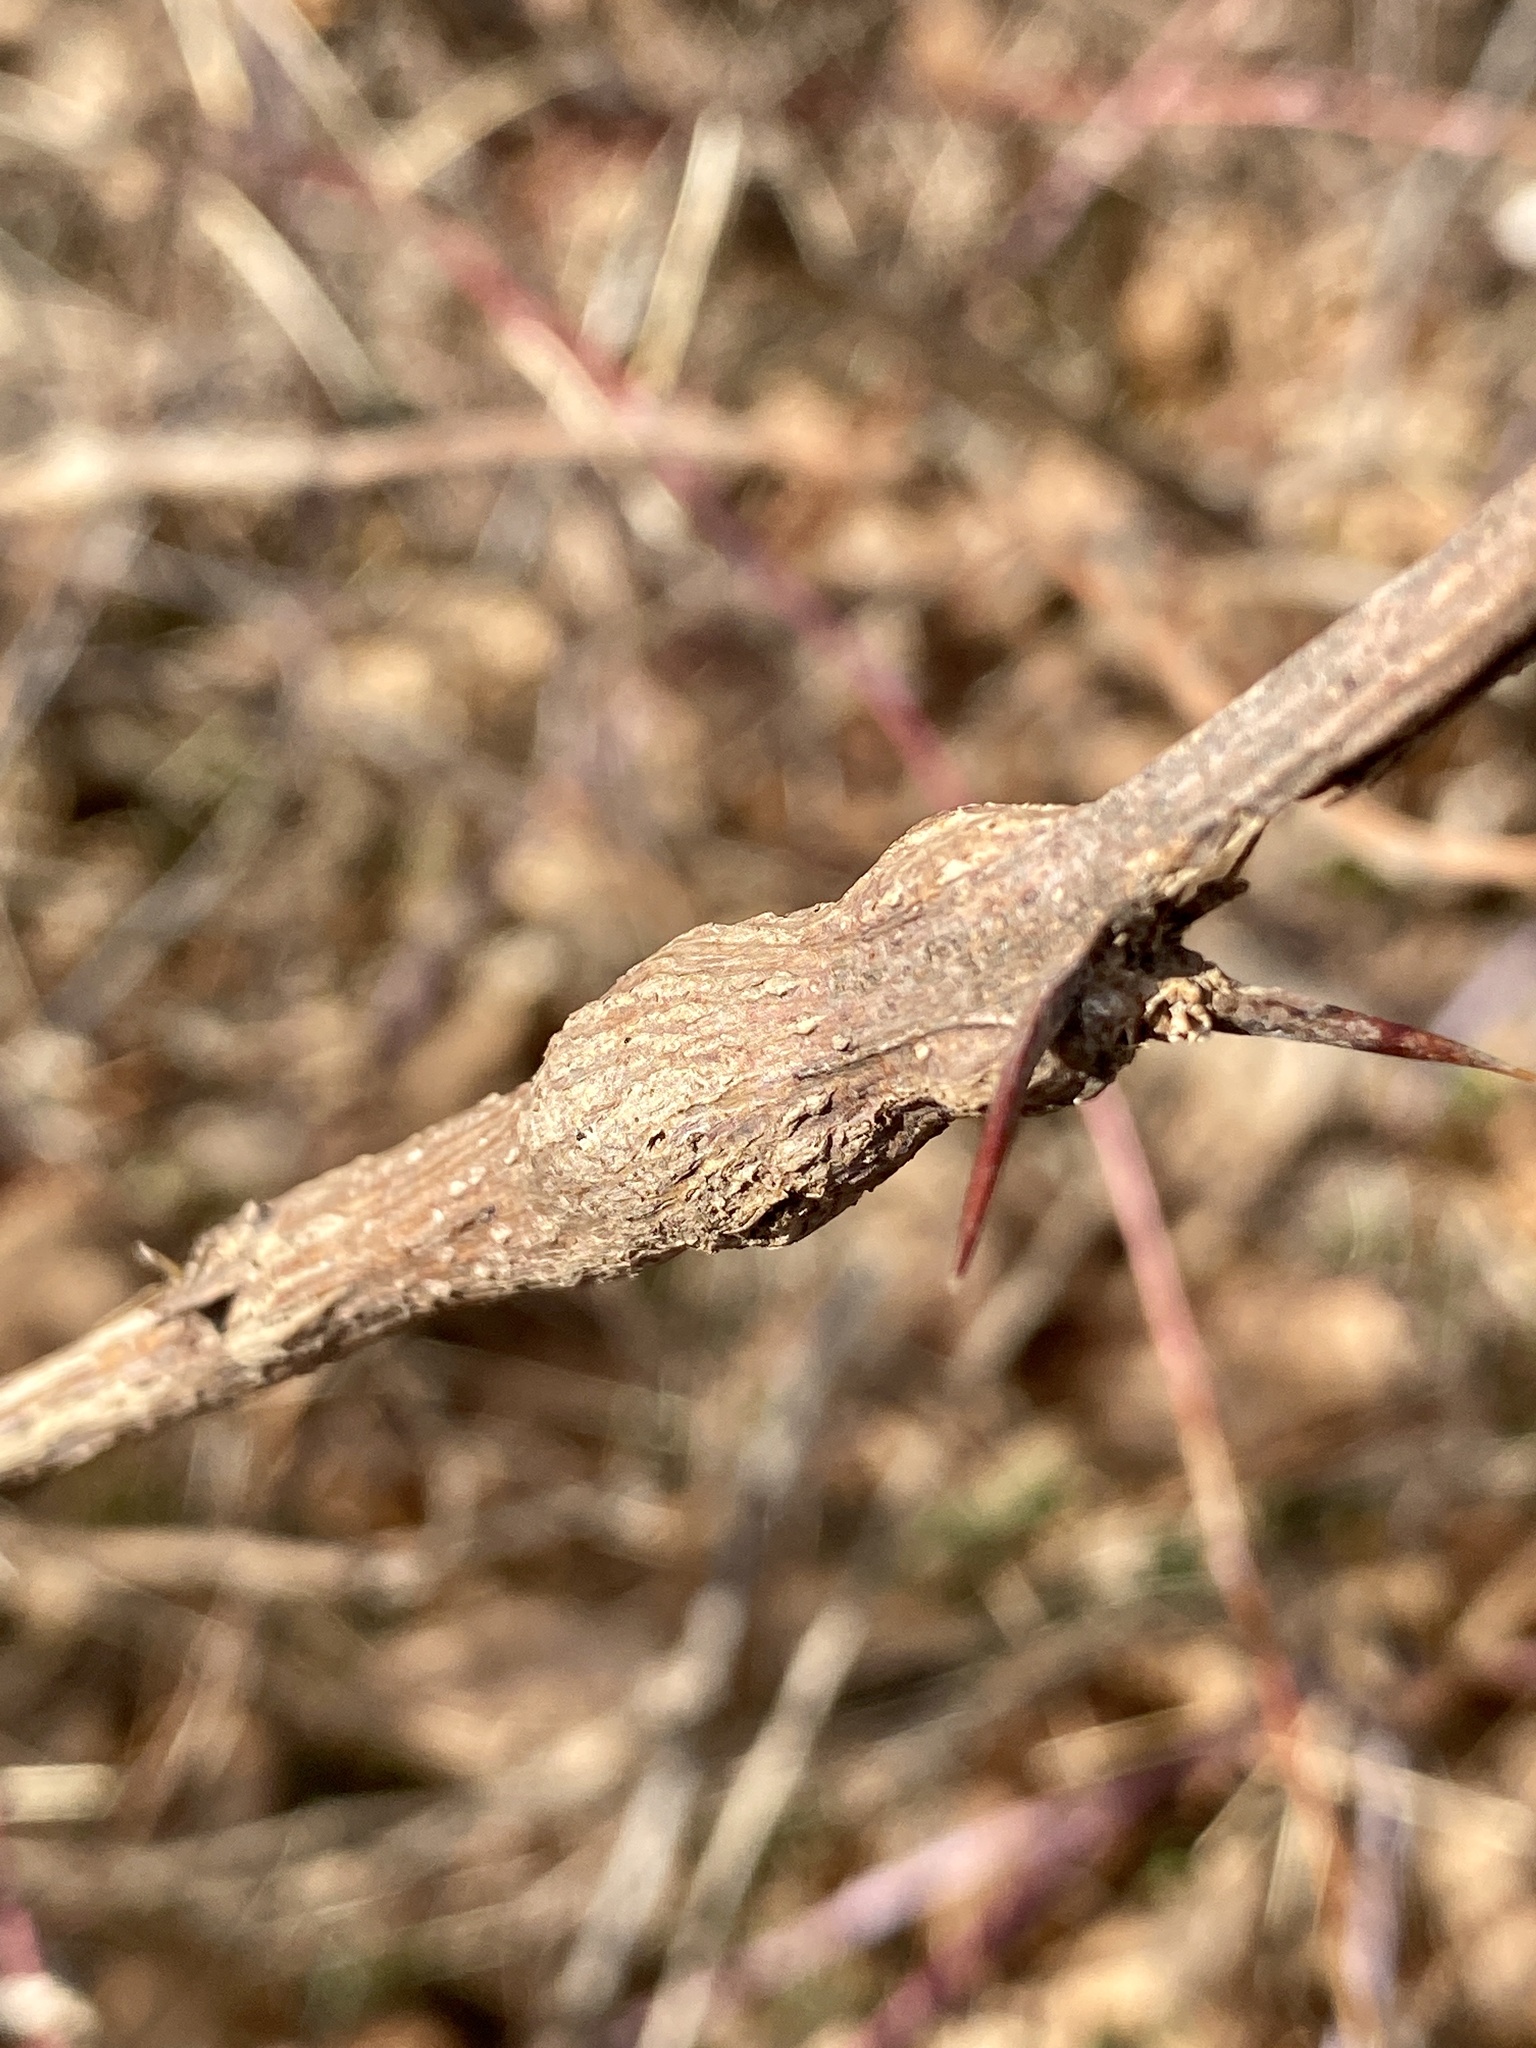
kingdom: Animalia
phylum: Arthropoda
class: Insecta
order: Lepidoptera
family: Tortricidae
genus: Ecdytolopha
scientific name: Ecdytolopha insiticiana
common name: Locust twig borer moth
